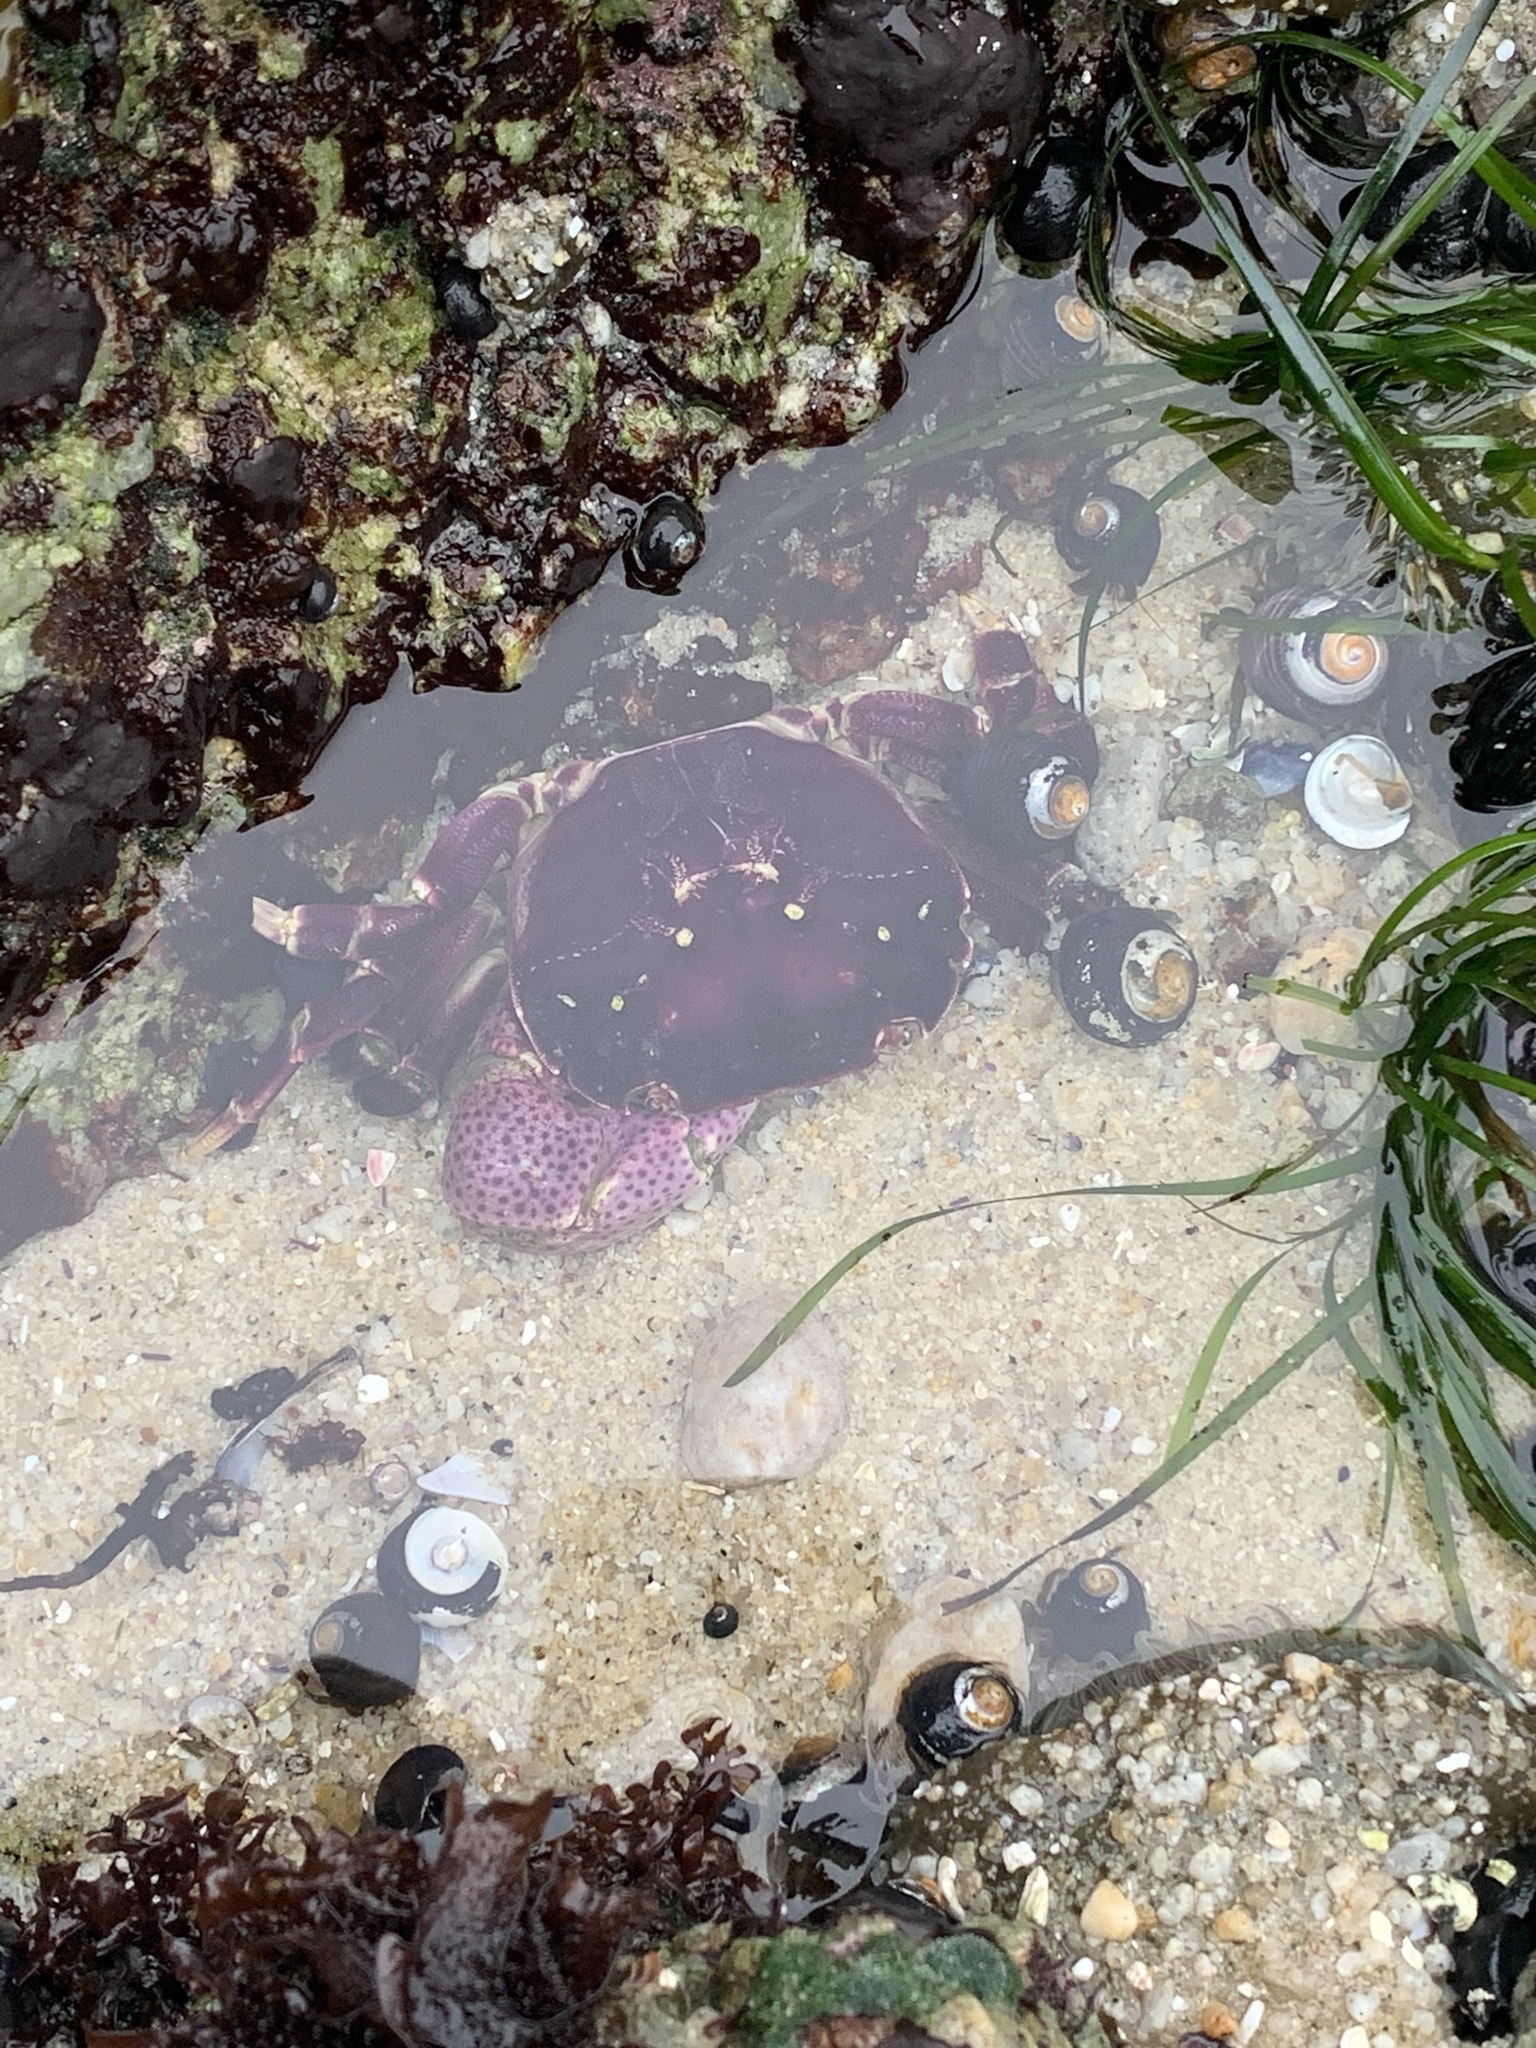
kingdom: Animalia
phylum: Arthropoda
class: Malacostraca
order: Decapoda
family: Varunidae
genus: Hemigrapsus
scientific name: Hemigrapsus nudus
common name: Purple shore crab
